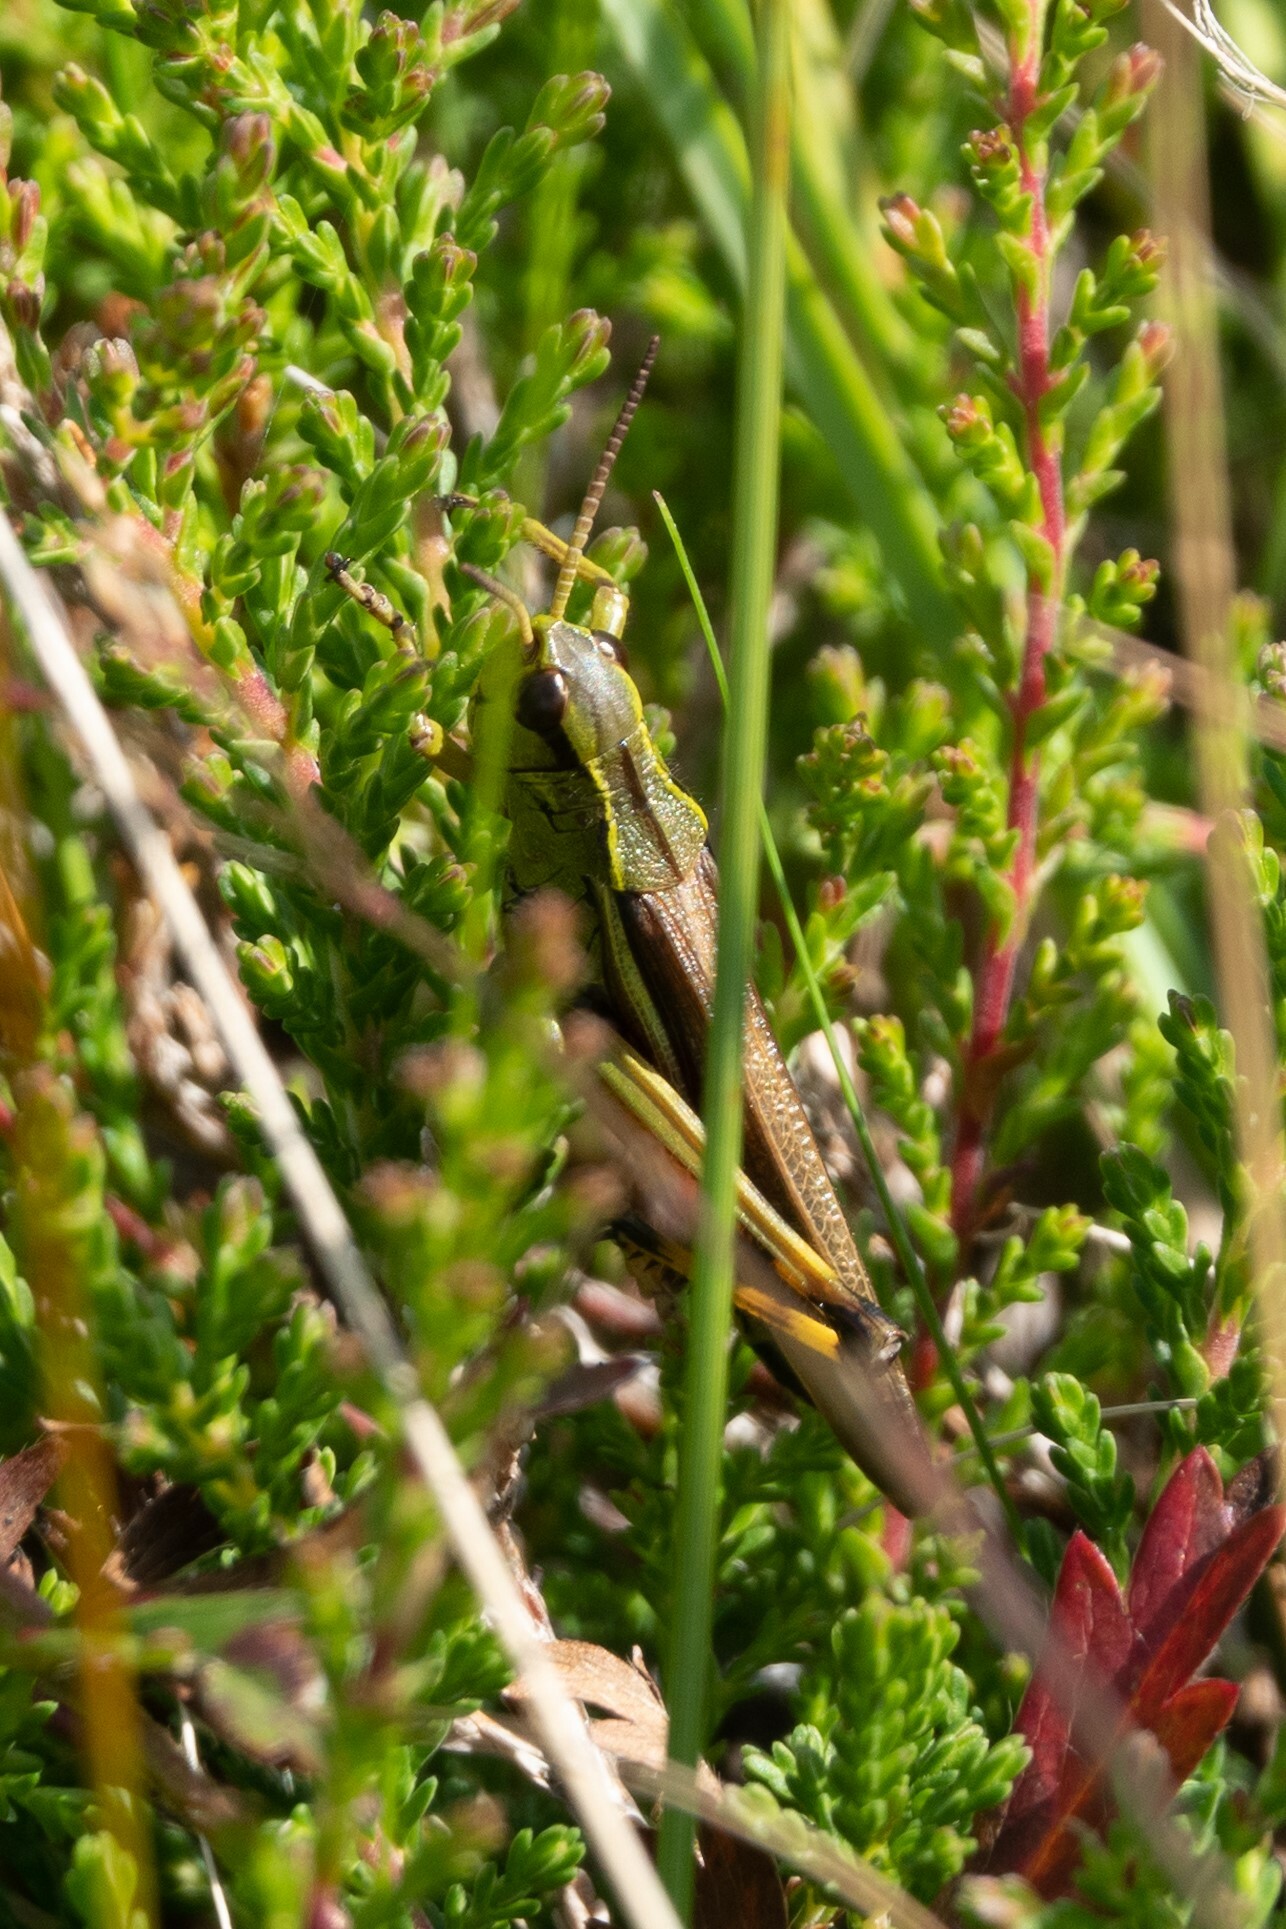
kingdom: Animalia
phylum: Arthropoda
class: Insecta
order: Orthoptera
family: Acrididae
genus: Stethophyma
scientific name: Stethophyma grossum
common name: Large marsh grasshopper
